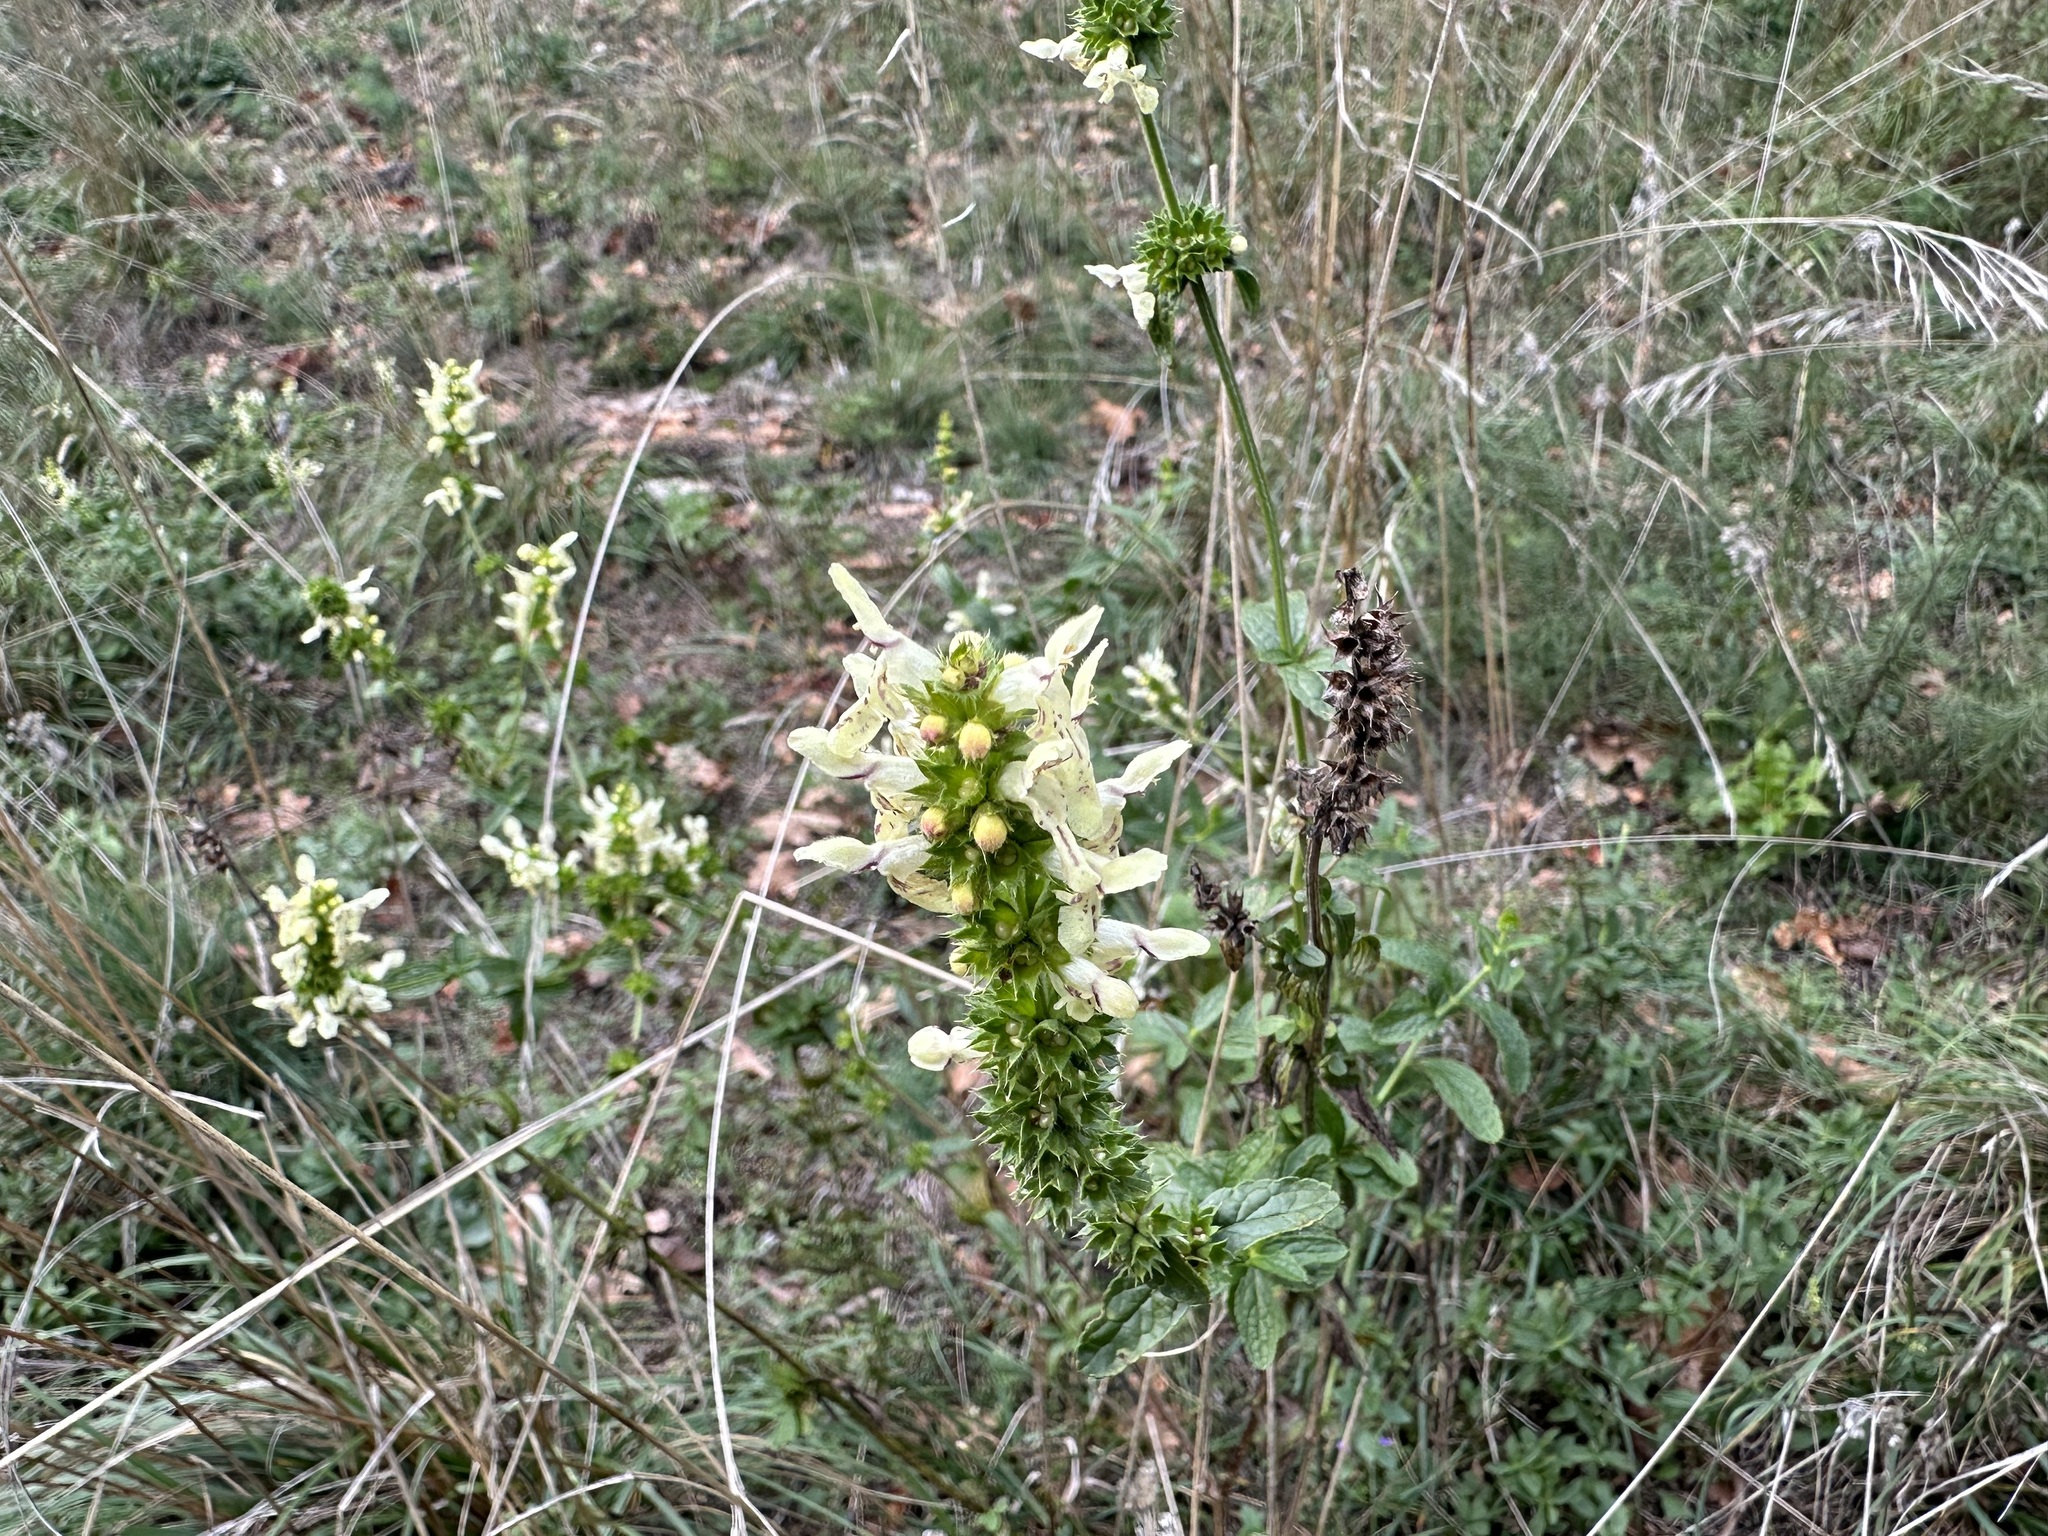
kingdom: Plantae
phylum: Tracheophyta
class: Magnoliopsida
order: Lamiales
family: Lamiaceae
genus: Stachys
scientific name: Stachys recta
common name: Perennial yellow-woundwort
